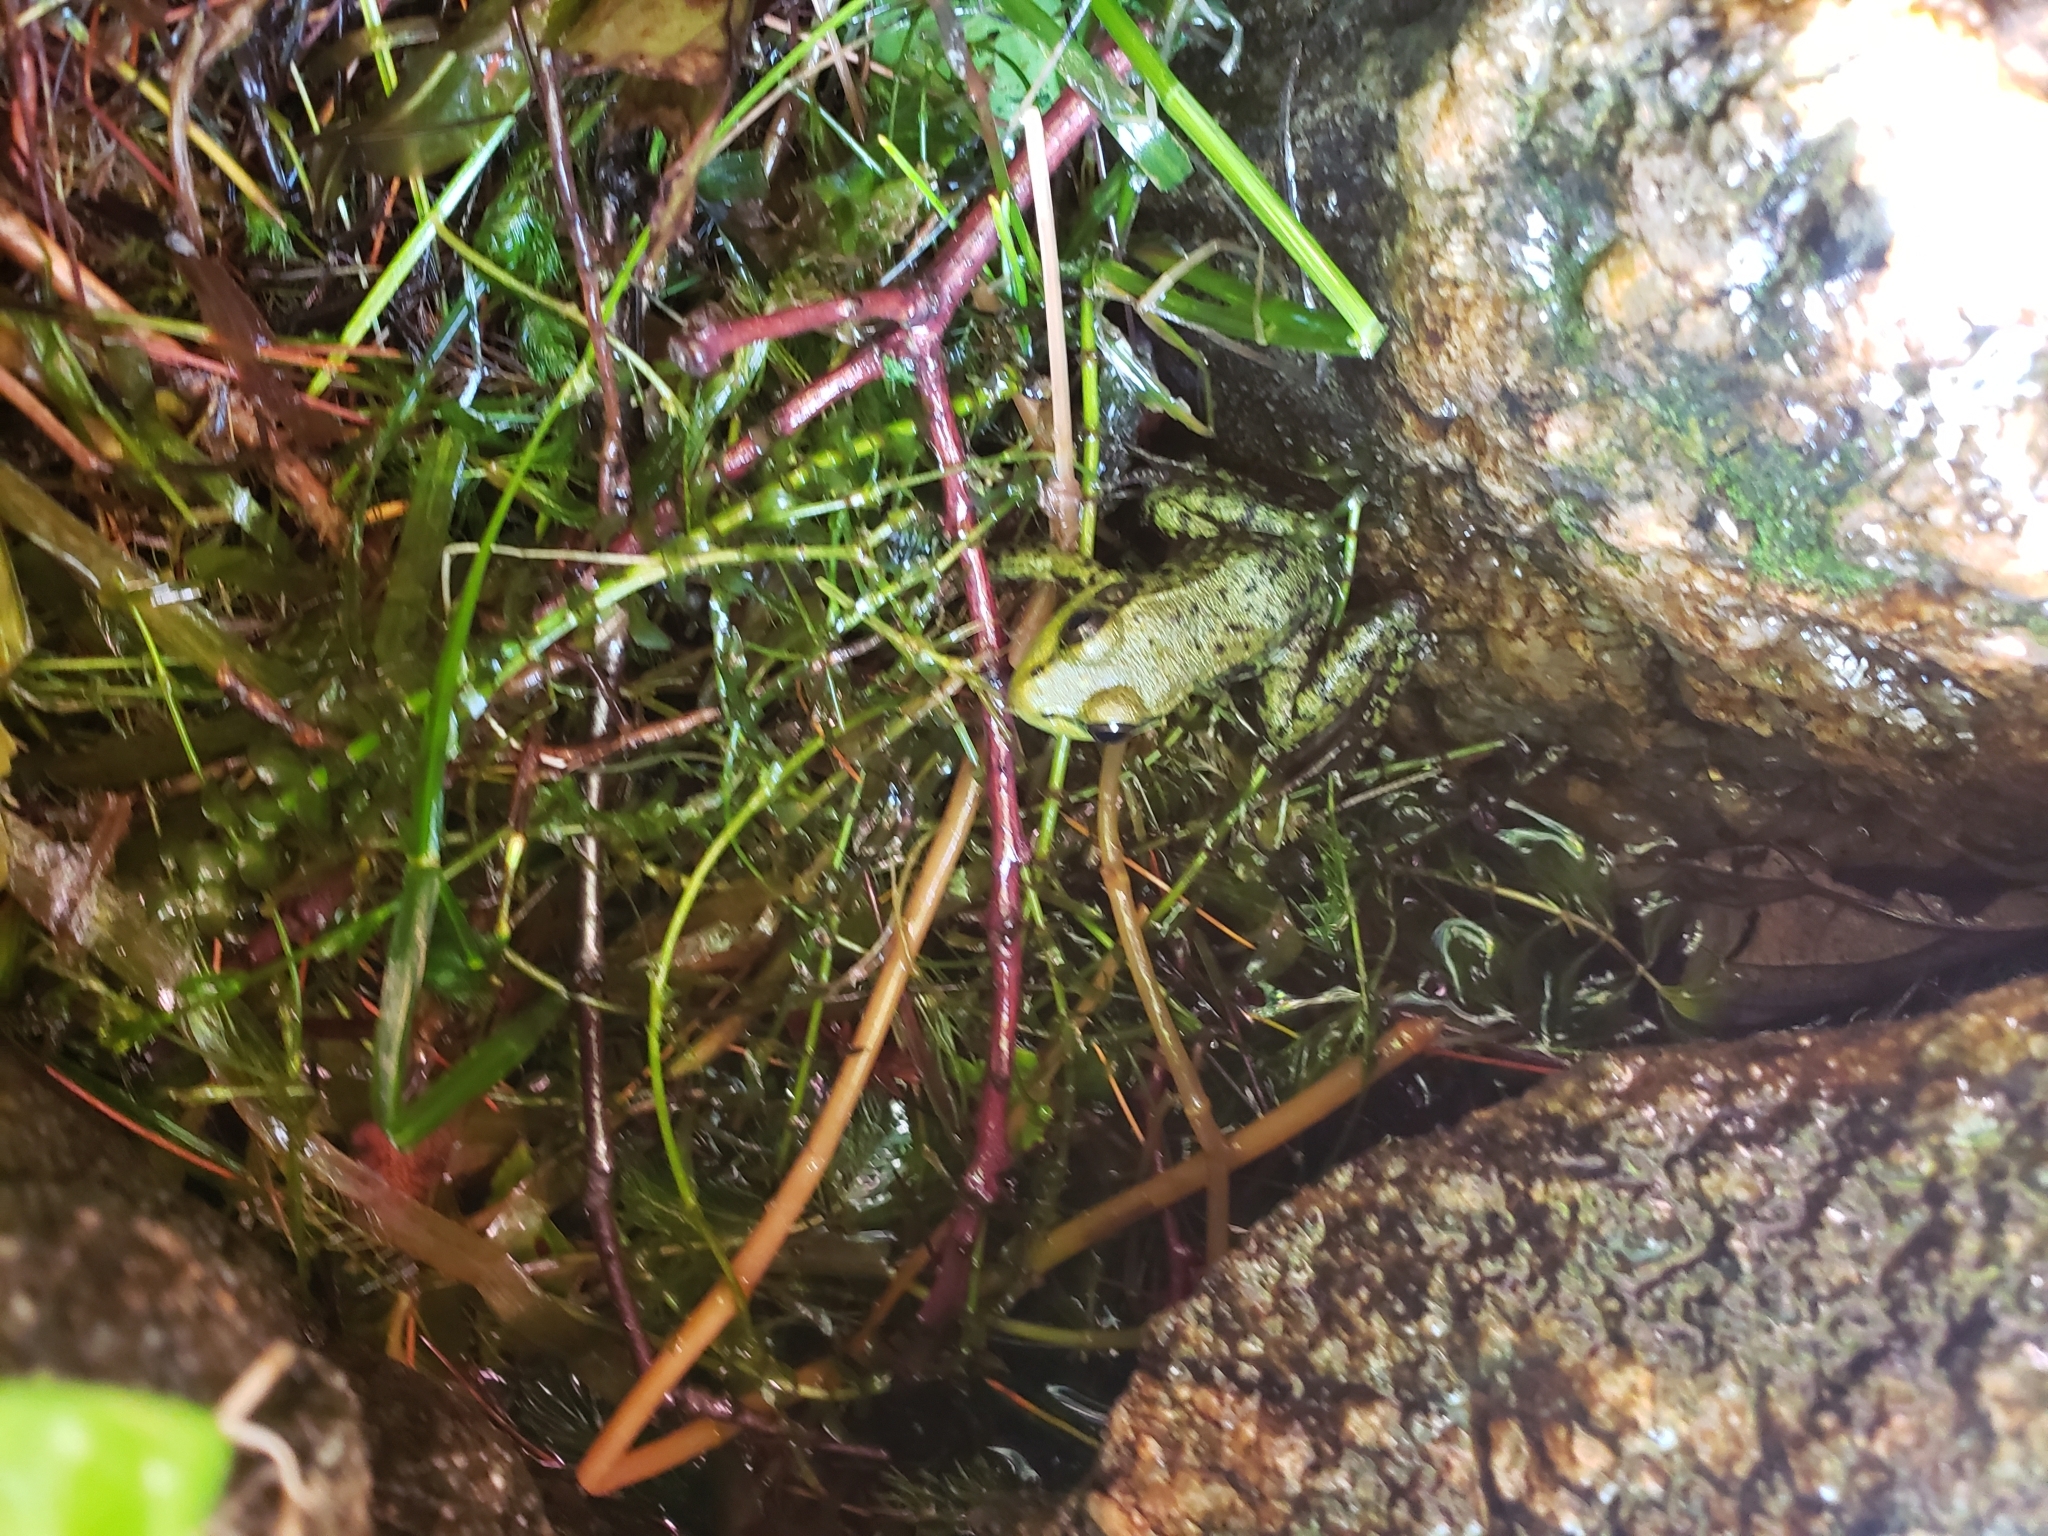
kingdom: Animalia
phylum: Chordata
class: Amphibia
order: Anura
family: Ranidae
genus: Lithobates
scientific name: Lithobates clamitans
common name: Green frog
